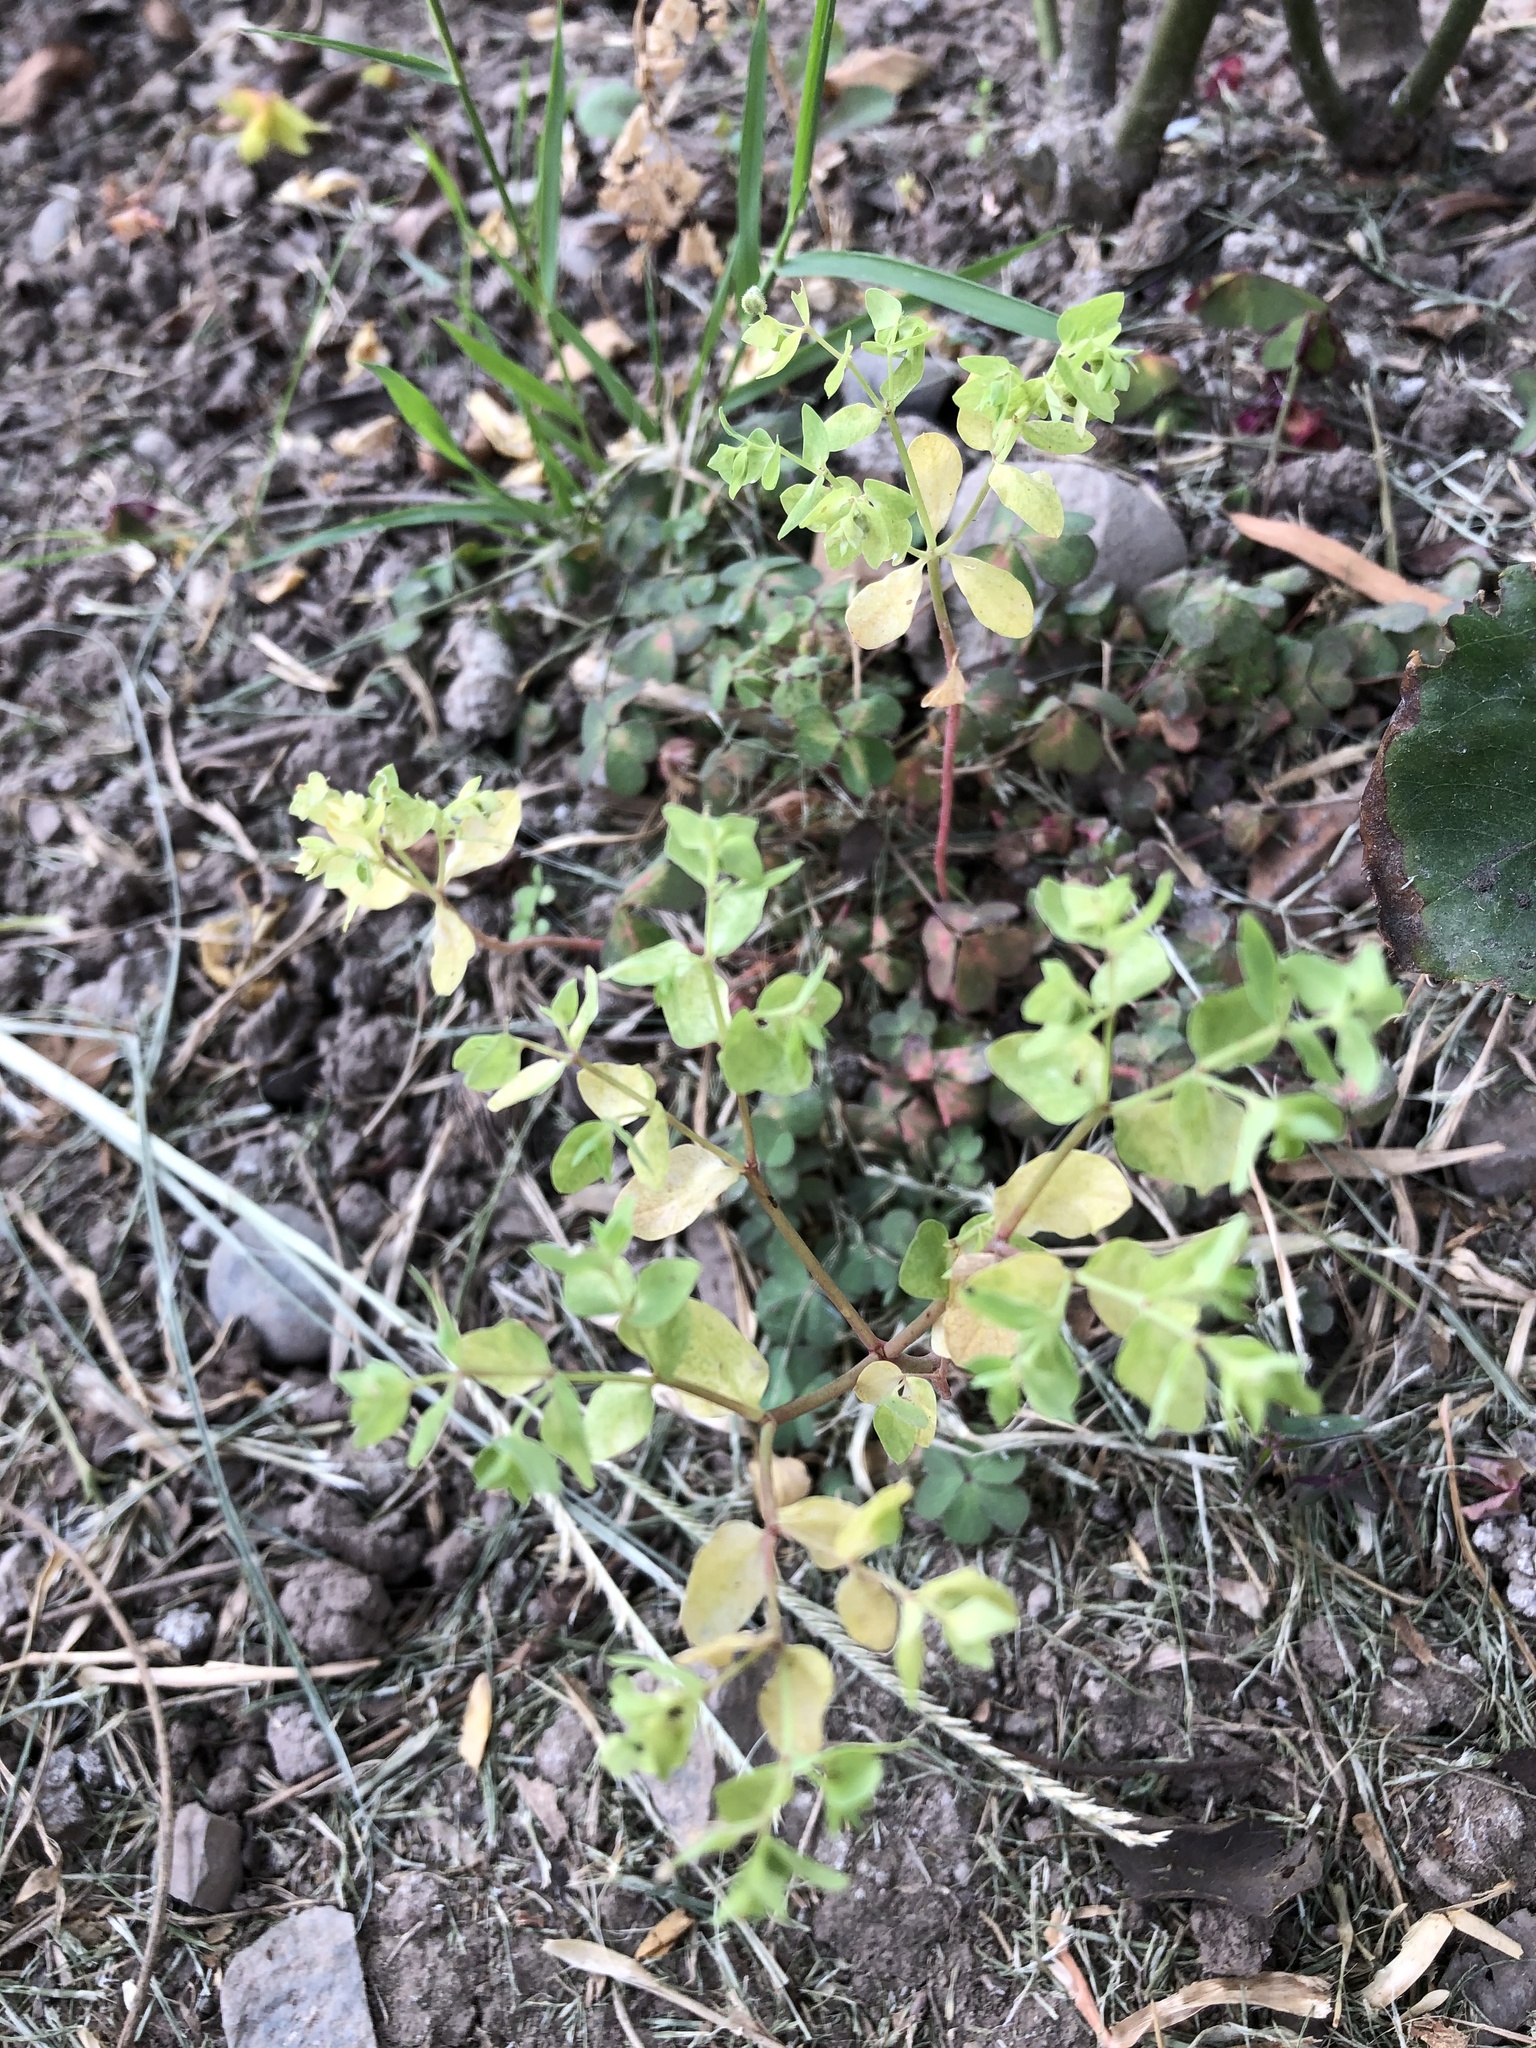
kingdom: Plantae
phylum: Tracheophyta
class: Magnoliopsida
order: Malpighiales
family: Euphorbiaceae
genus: Euphorbia
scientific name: Euphorbia peplus
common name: Petty spurge
